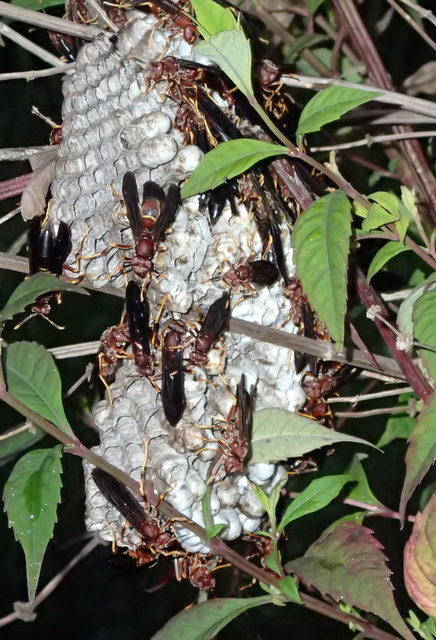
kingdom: Animalia
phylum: Arthropoda
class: Insecta
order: Hymenoptera
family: Eumenidae
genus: Polistes
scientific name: Polistes annularis
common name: Ringed paper wasp
